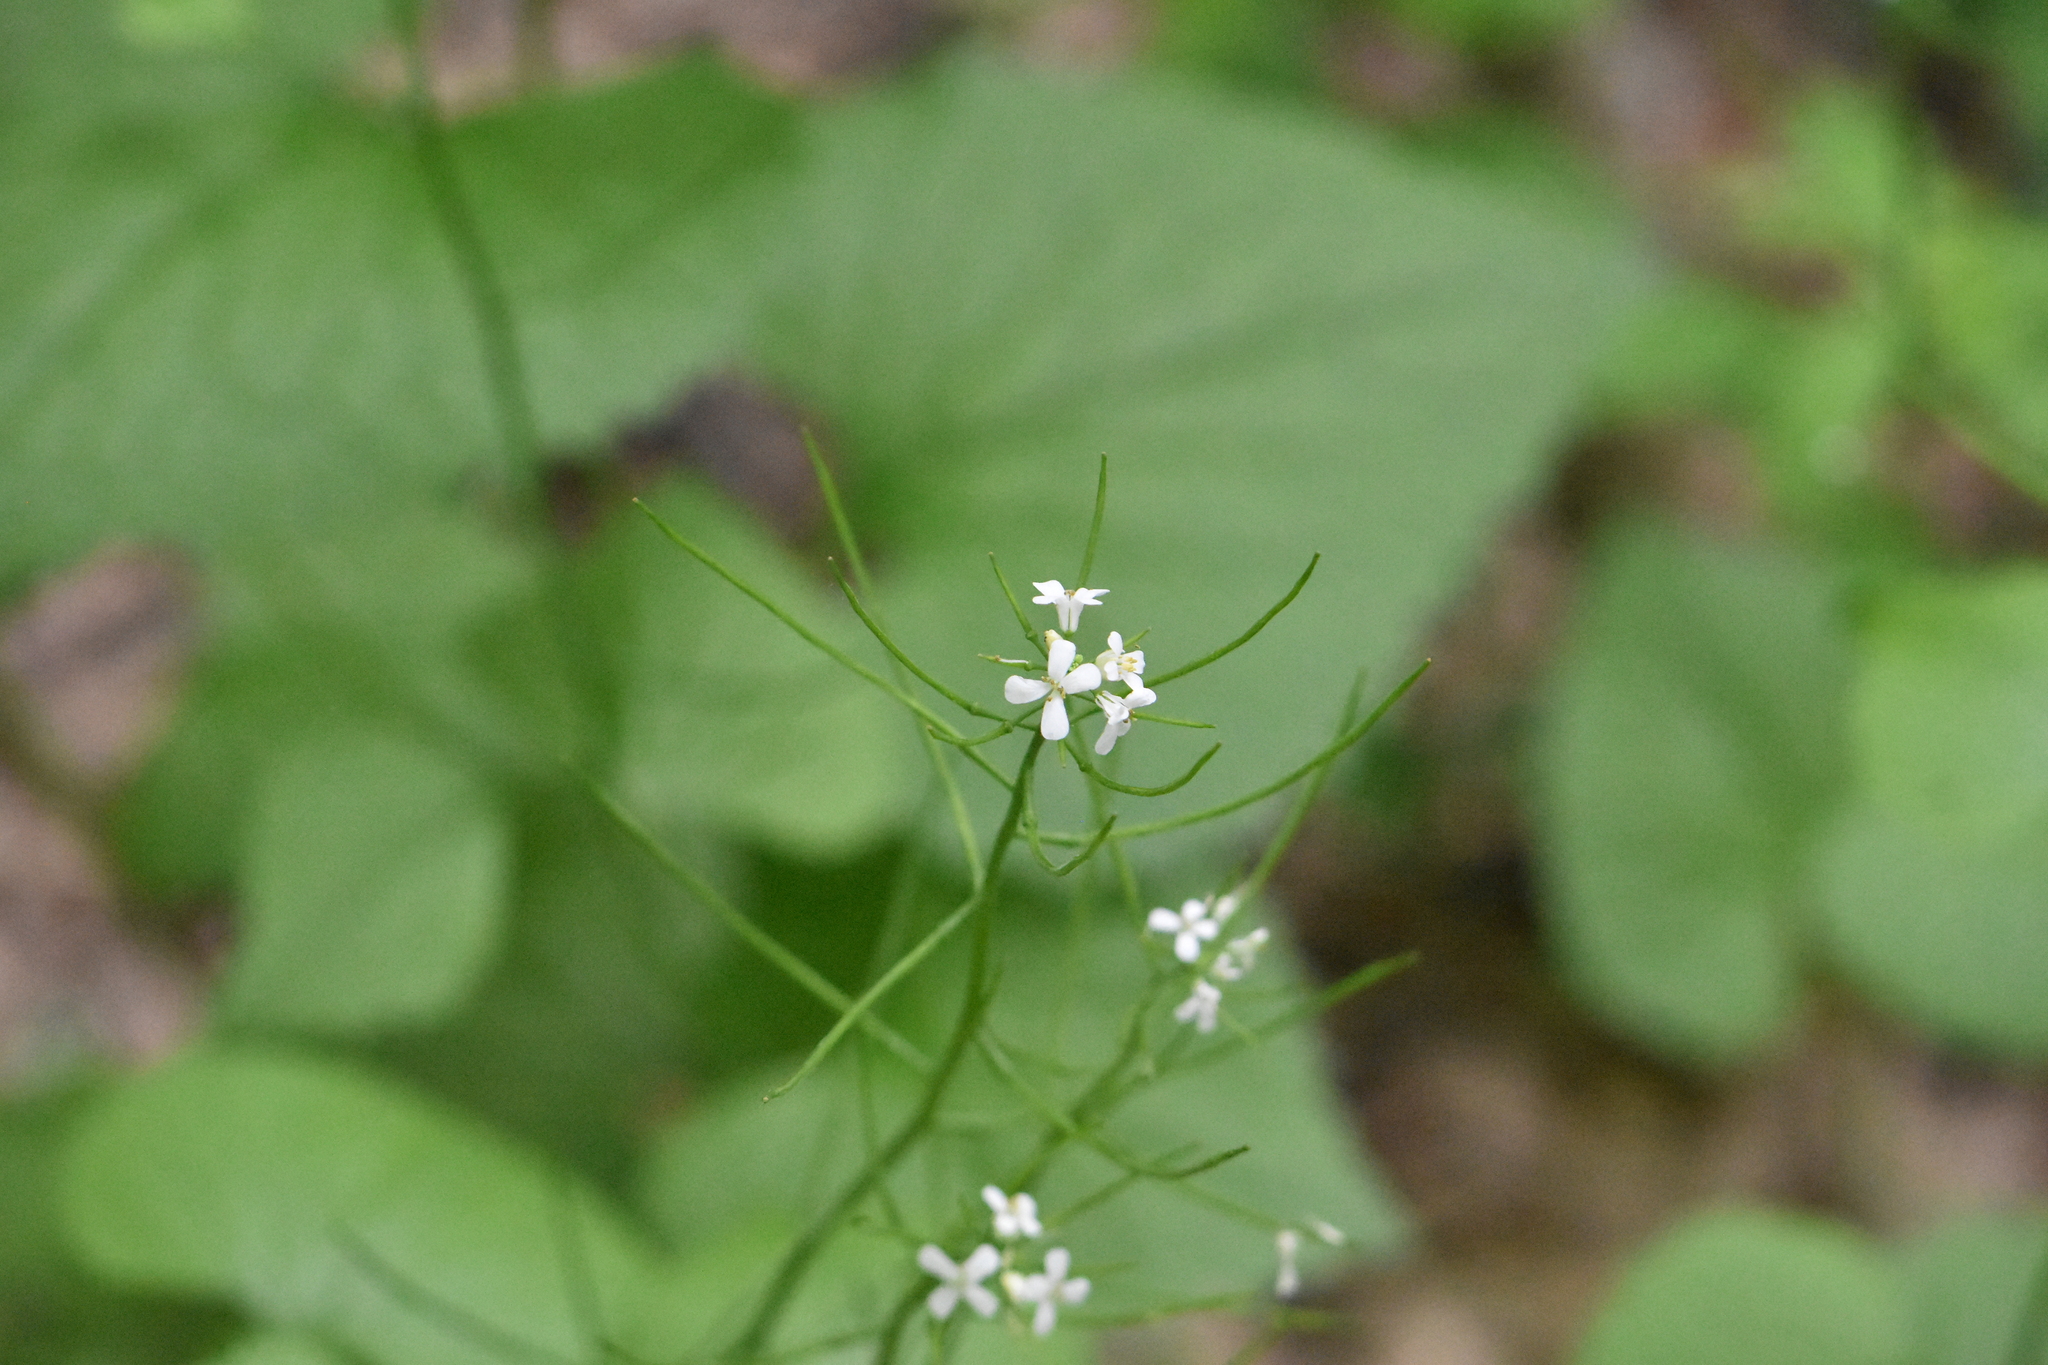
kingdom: Plantae
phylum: Tracheophyta
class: Magnoliopsida
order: Brassicales
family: Brassicaceae
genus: Alliaria
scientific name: Alliaria petiolata
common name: Garlic mustard
